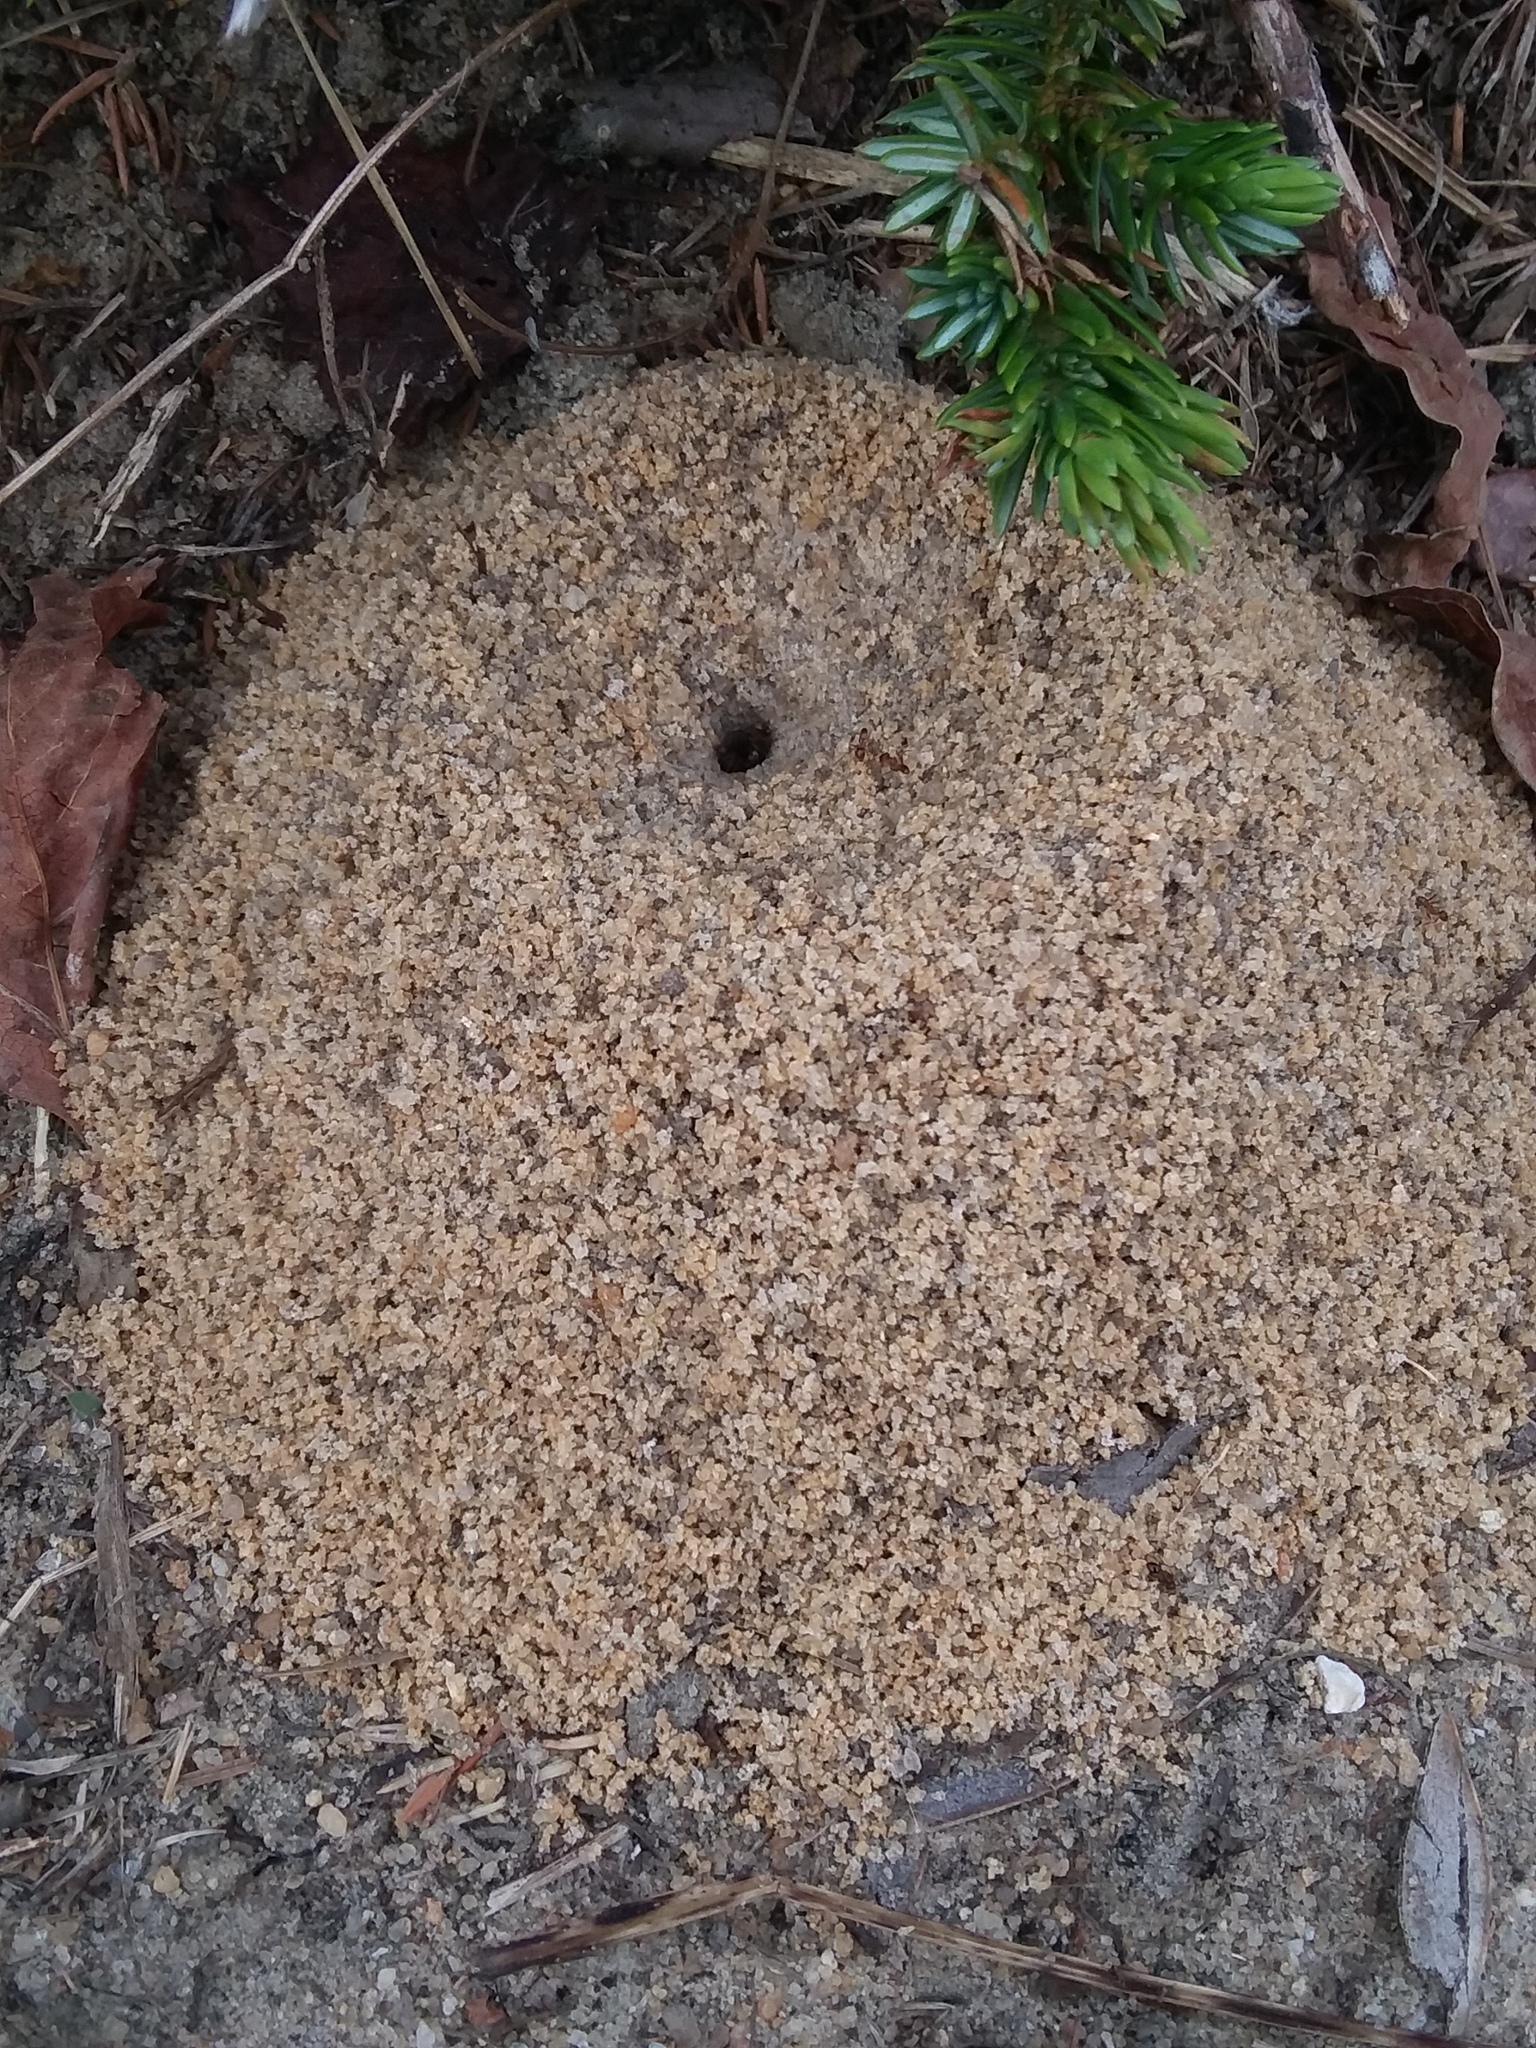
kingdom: Animalia
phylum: Arthropoda
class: Insecta
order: Hymenoptera
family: Formicidae
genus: Dorymyrmex
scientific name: Dorymyrmex bureni
